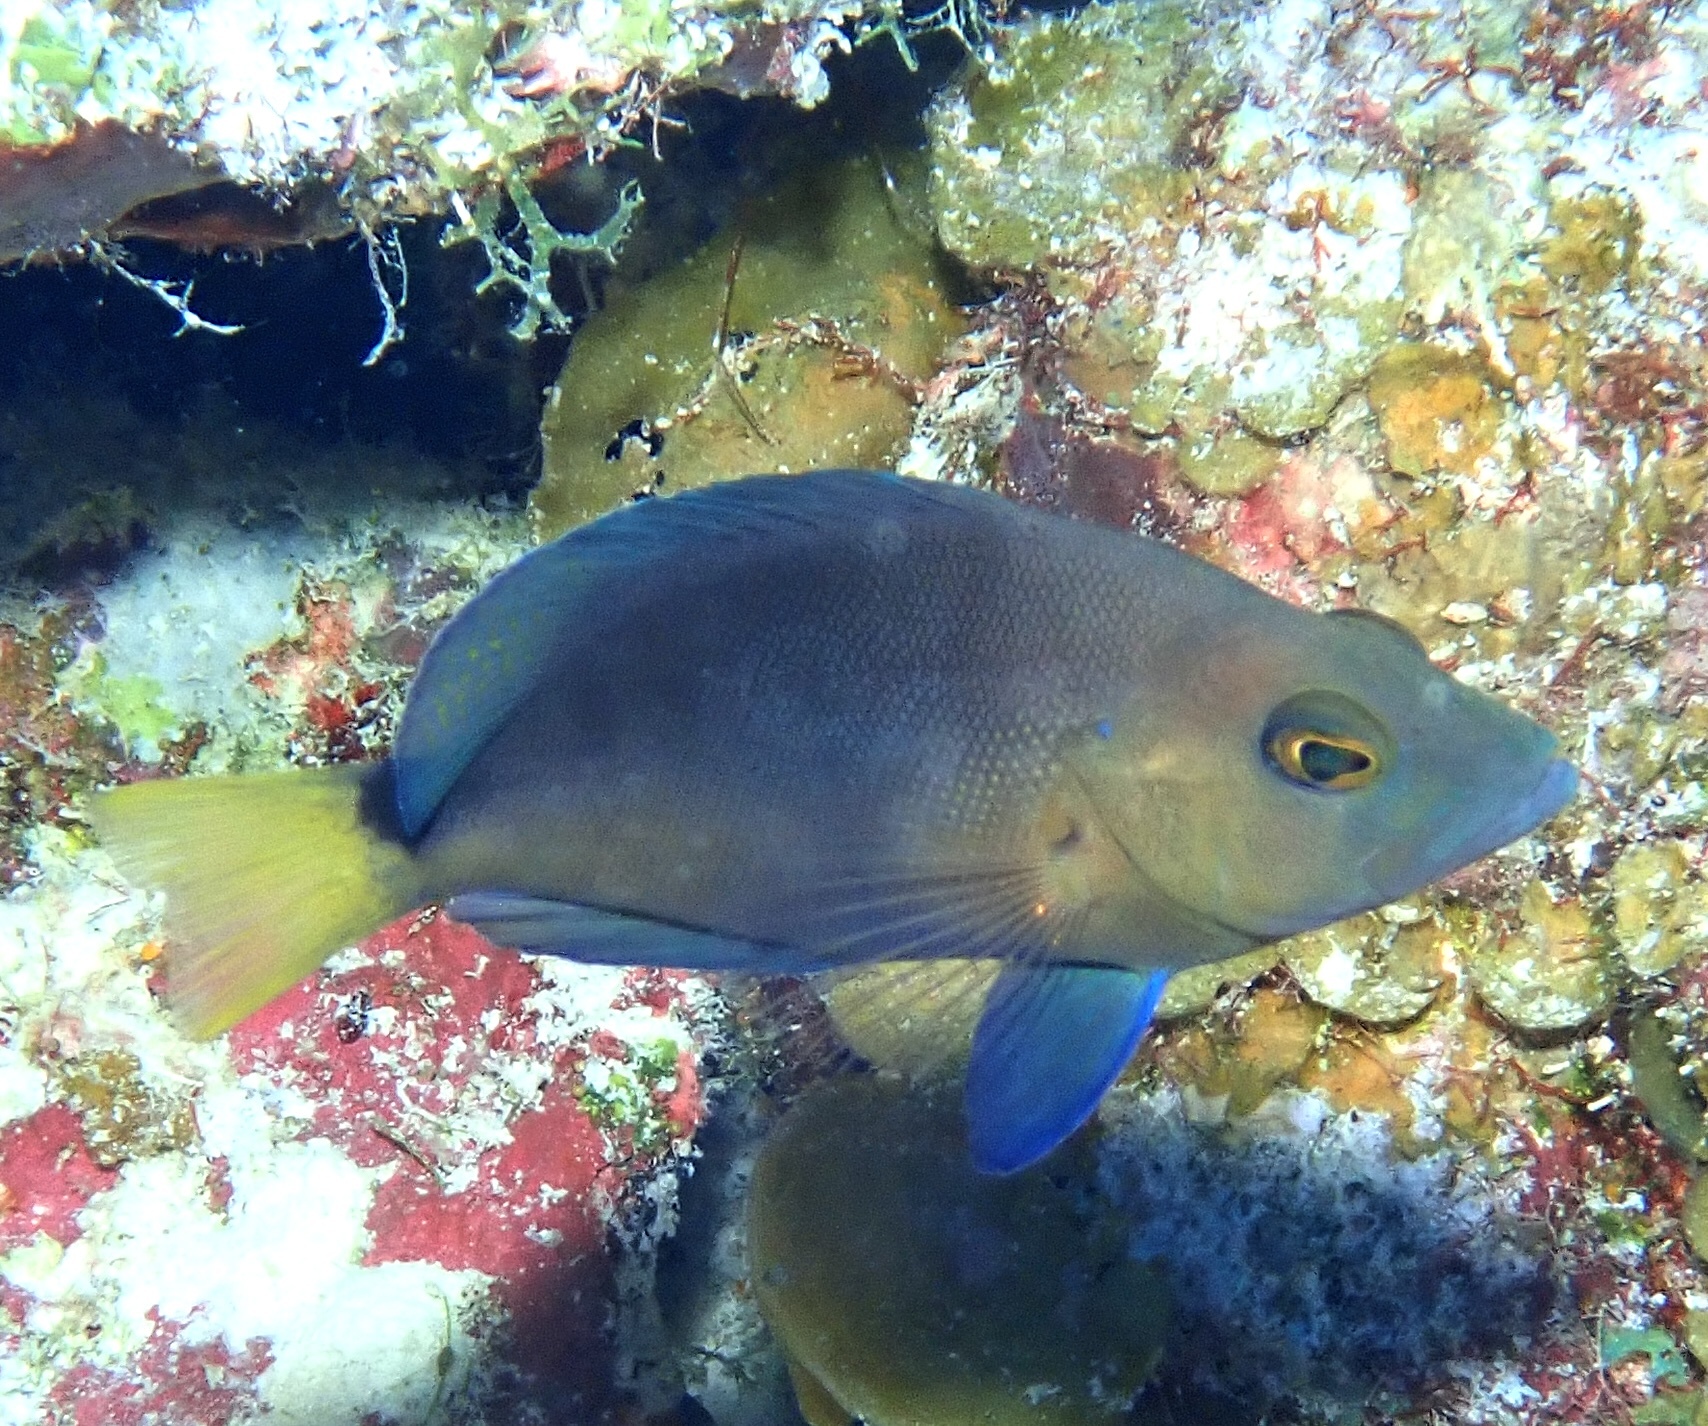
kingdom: Animalia
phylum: Chordata
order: Perciformes
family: Serranidae
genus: Hypoplectrus
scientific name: Hypoplectrus chlorurus
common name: Yellowtail hamlet
